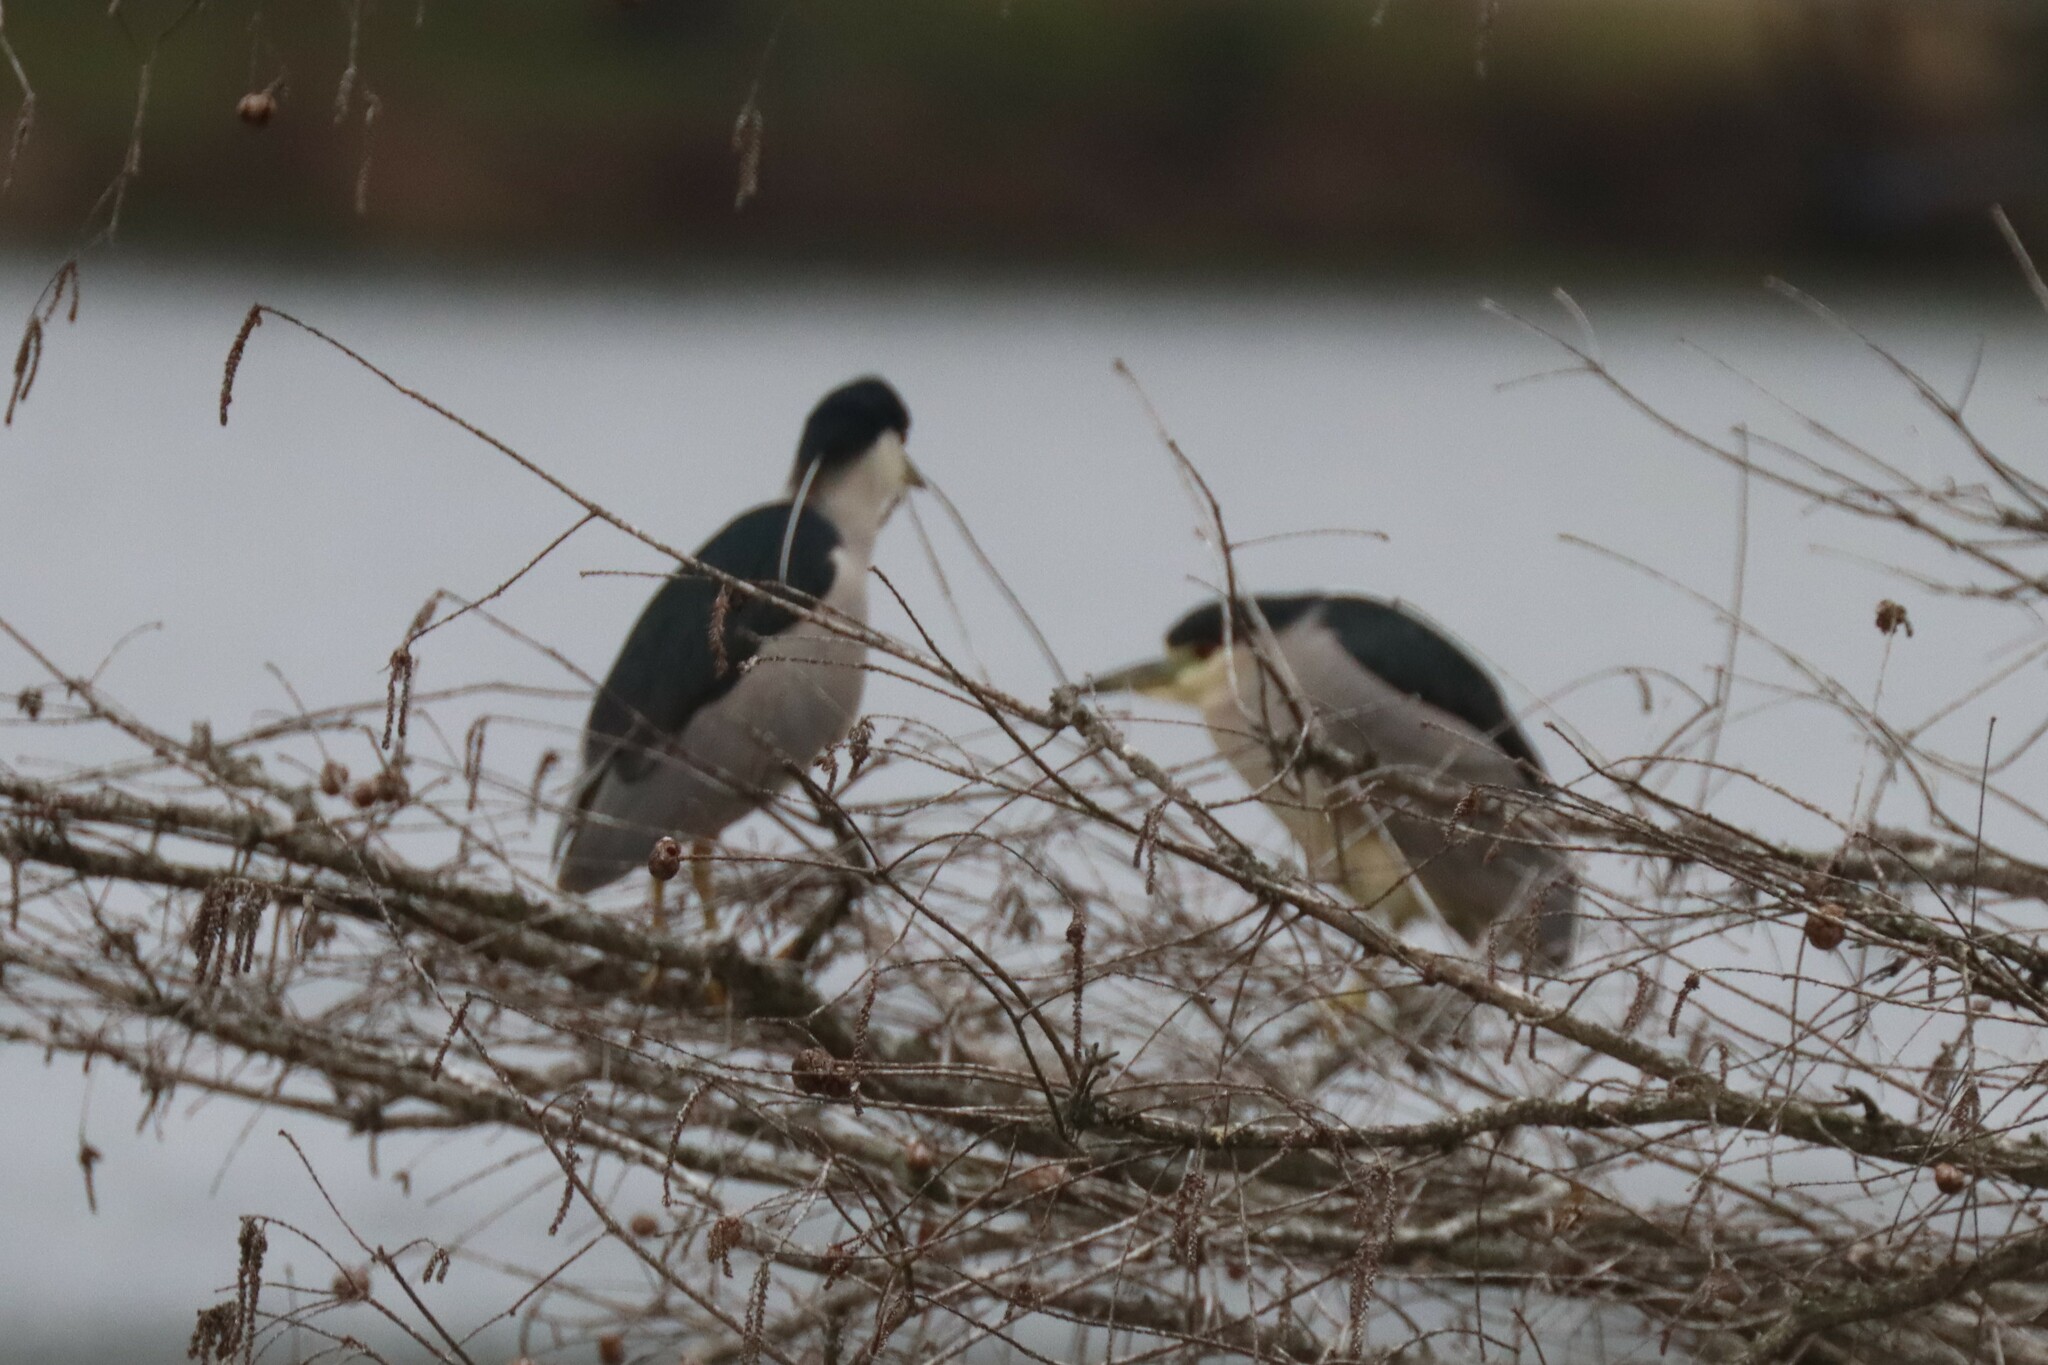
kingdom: Animalia
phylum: Chordata
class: Aves
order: Pelecaniformes
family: Ardeidae
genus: Nycticorax
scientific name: Nycticorax nycticorax
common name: Black-crowned night heron
